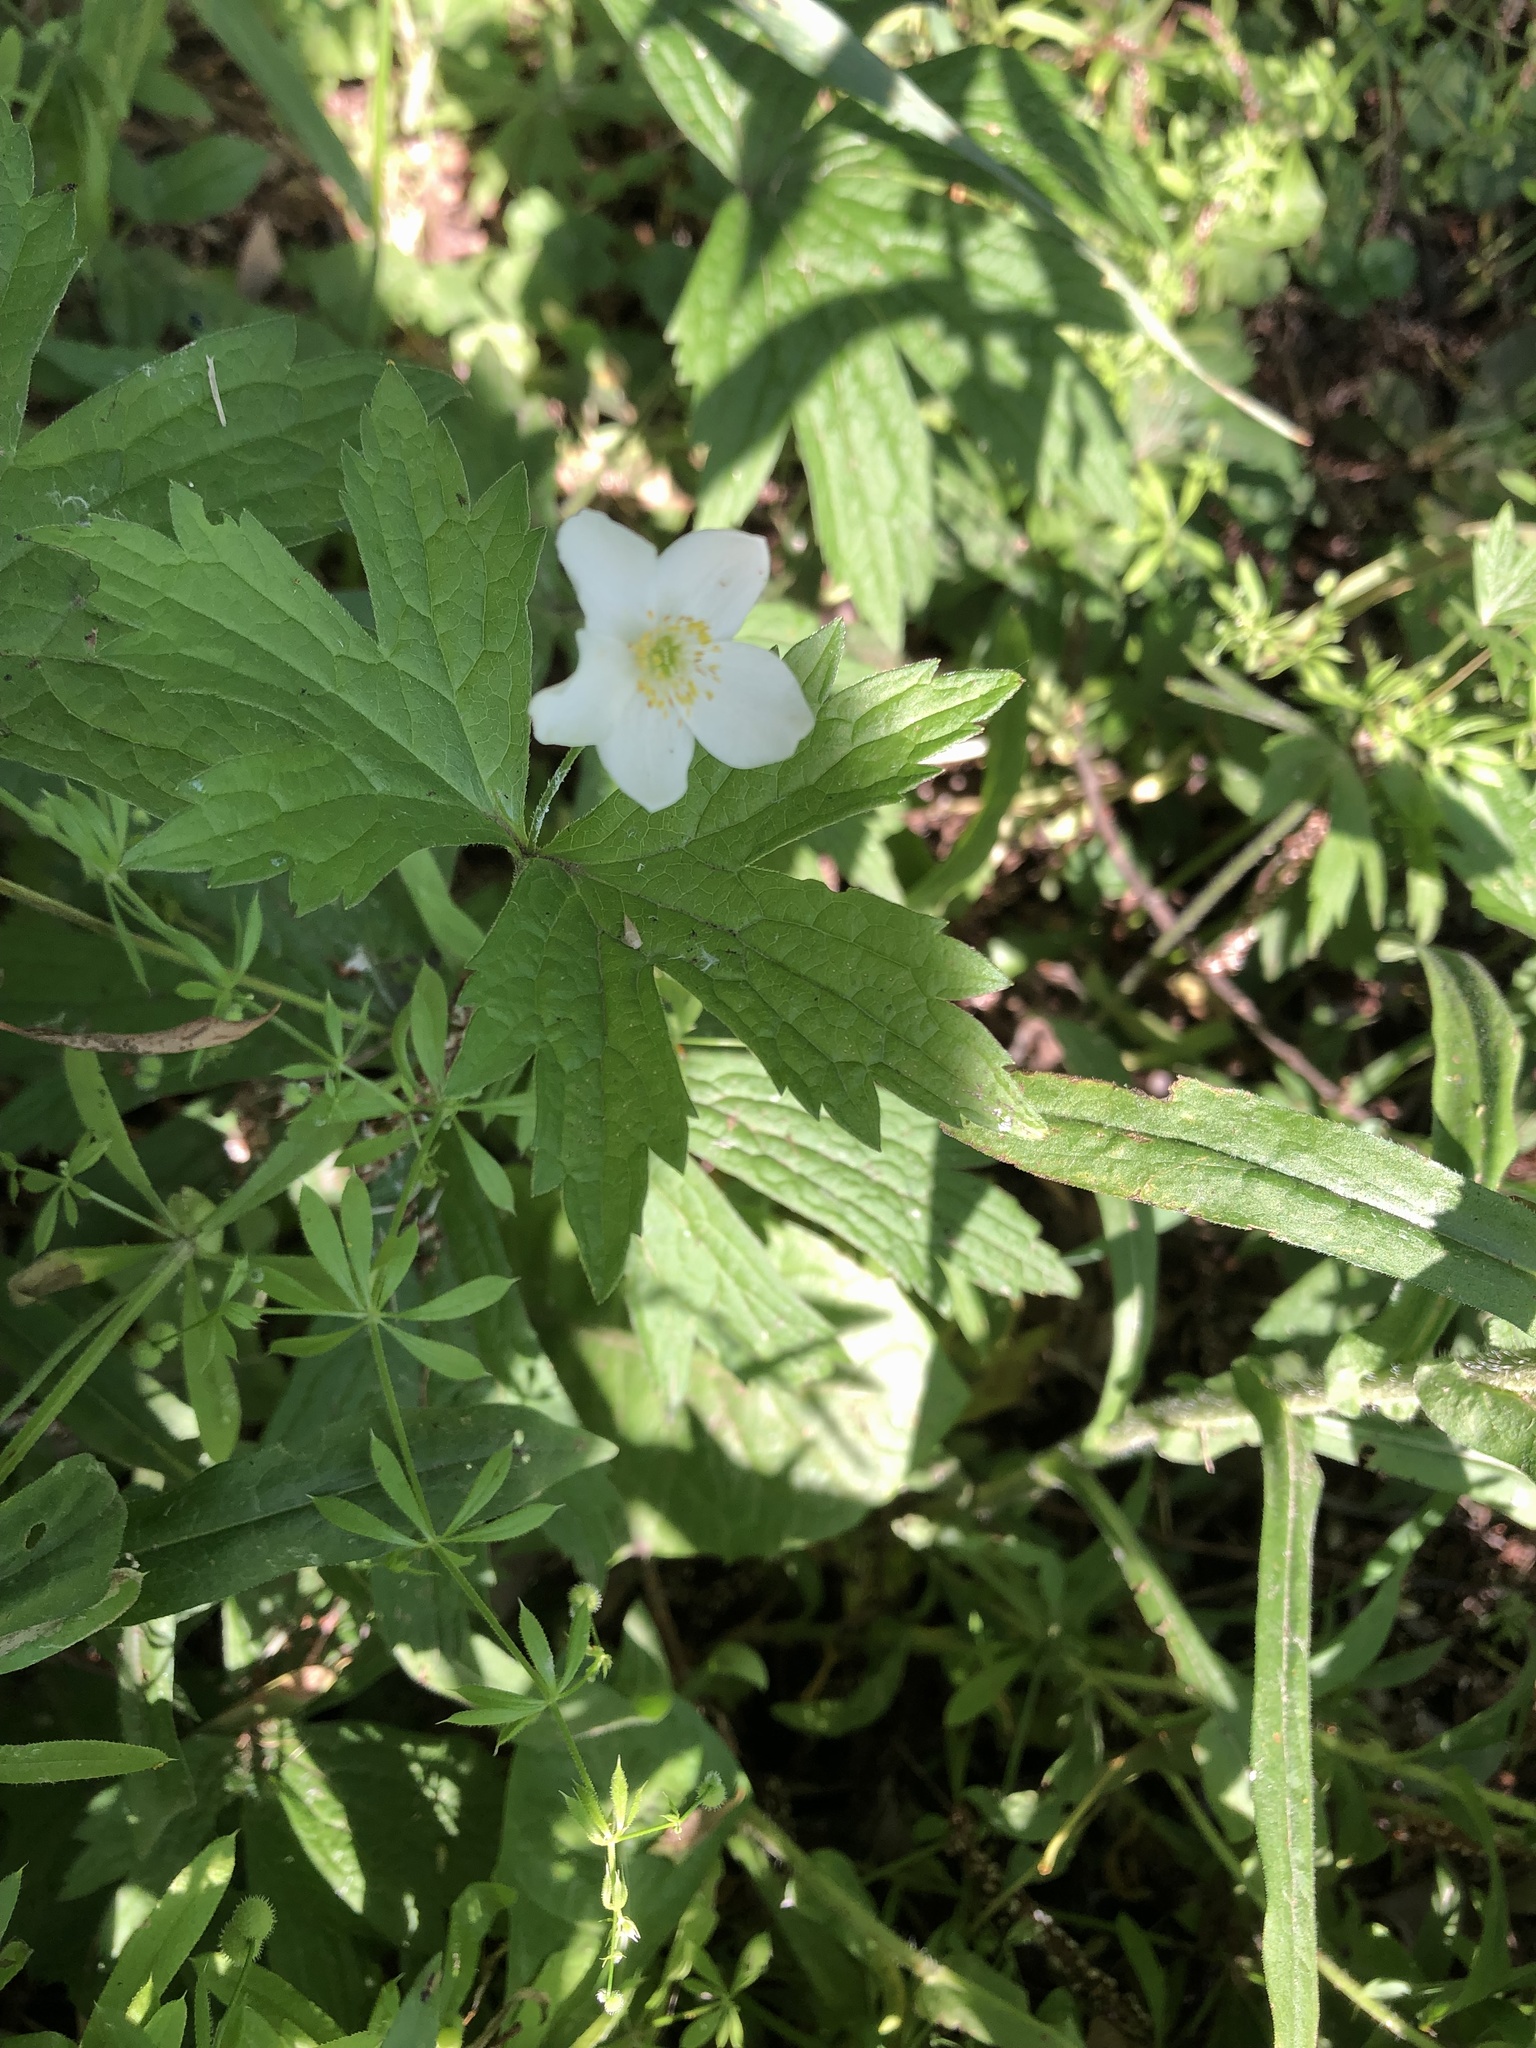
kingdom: Plantae
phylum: Tracheophyta
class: Magnoliopsida
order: Ranunculales
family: Ranunculaceae
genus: Anemonastrum
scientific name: Anemonastrum canadense
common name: Canada anemone
